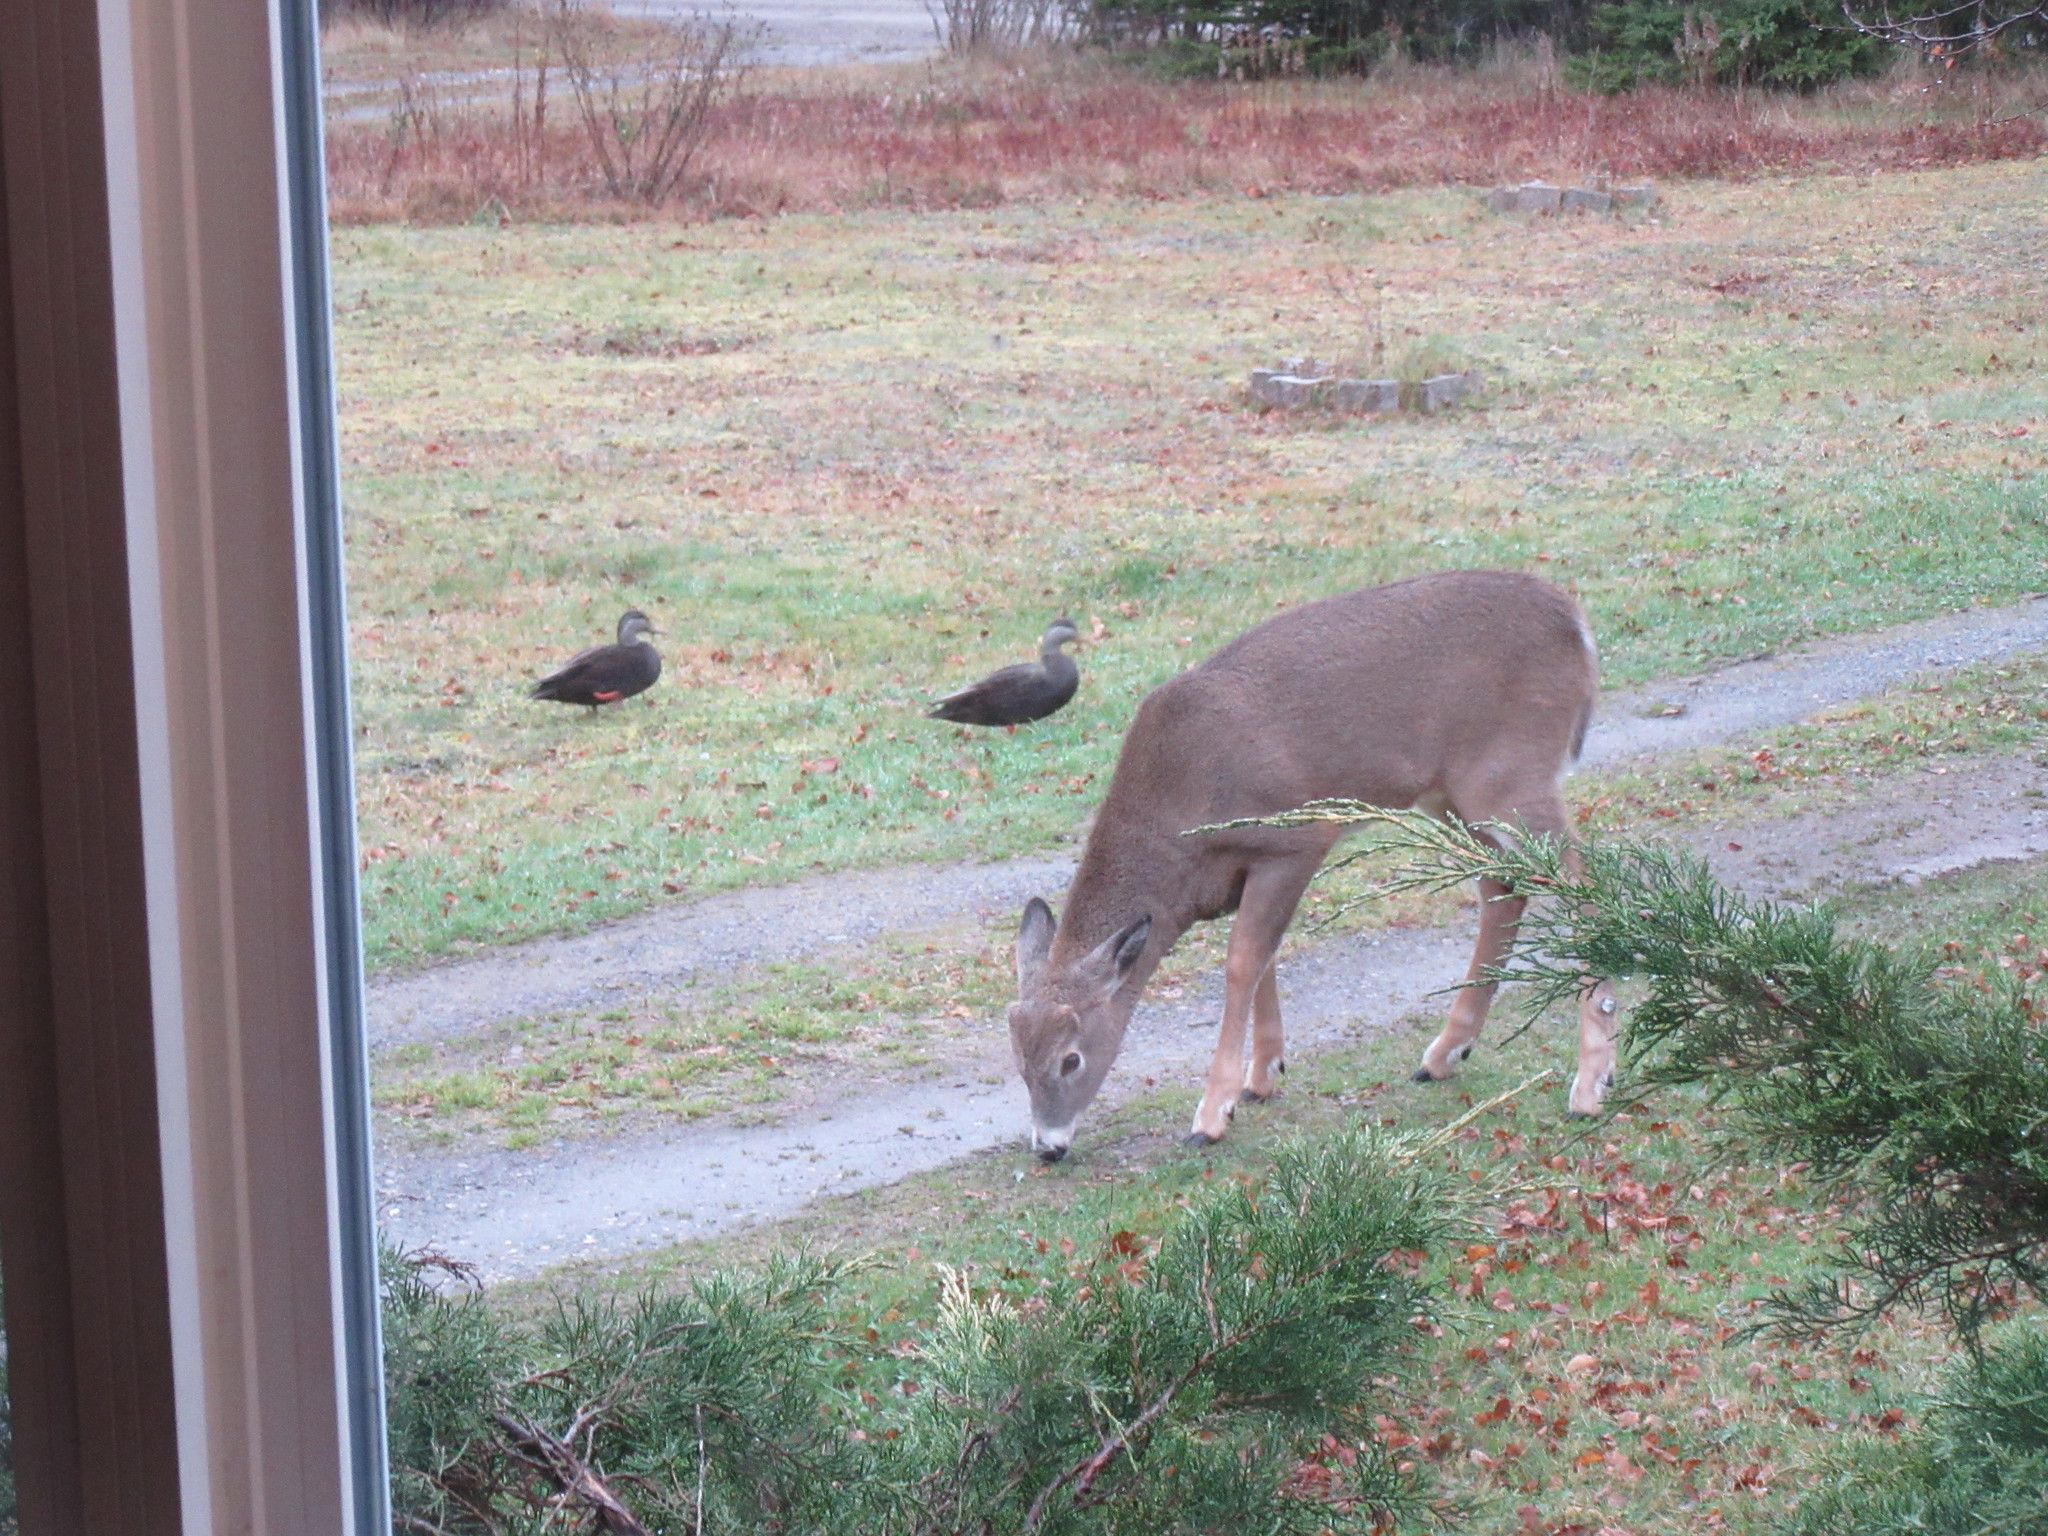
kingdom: Animalia
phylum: Chordata
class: Mammalia
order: Artiodactyla
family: Cervidae
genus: Odocoileus
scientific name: Odocoileus virginianus
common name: White-tailed deer
